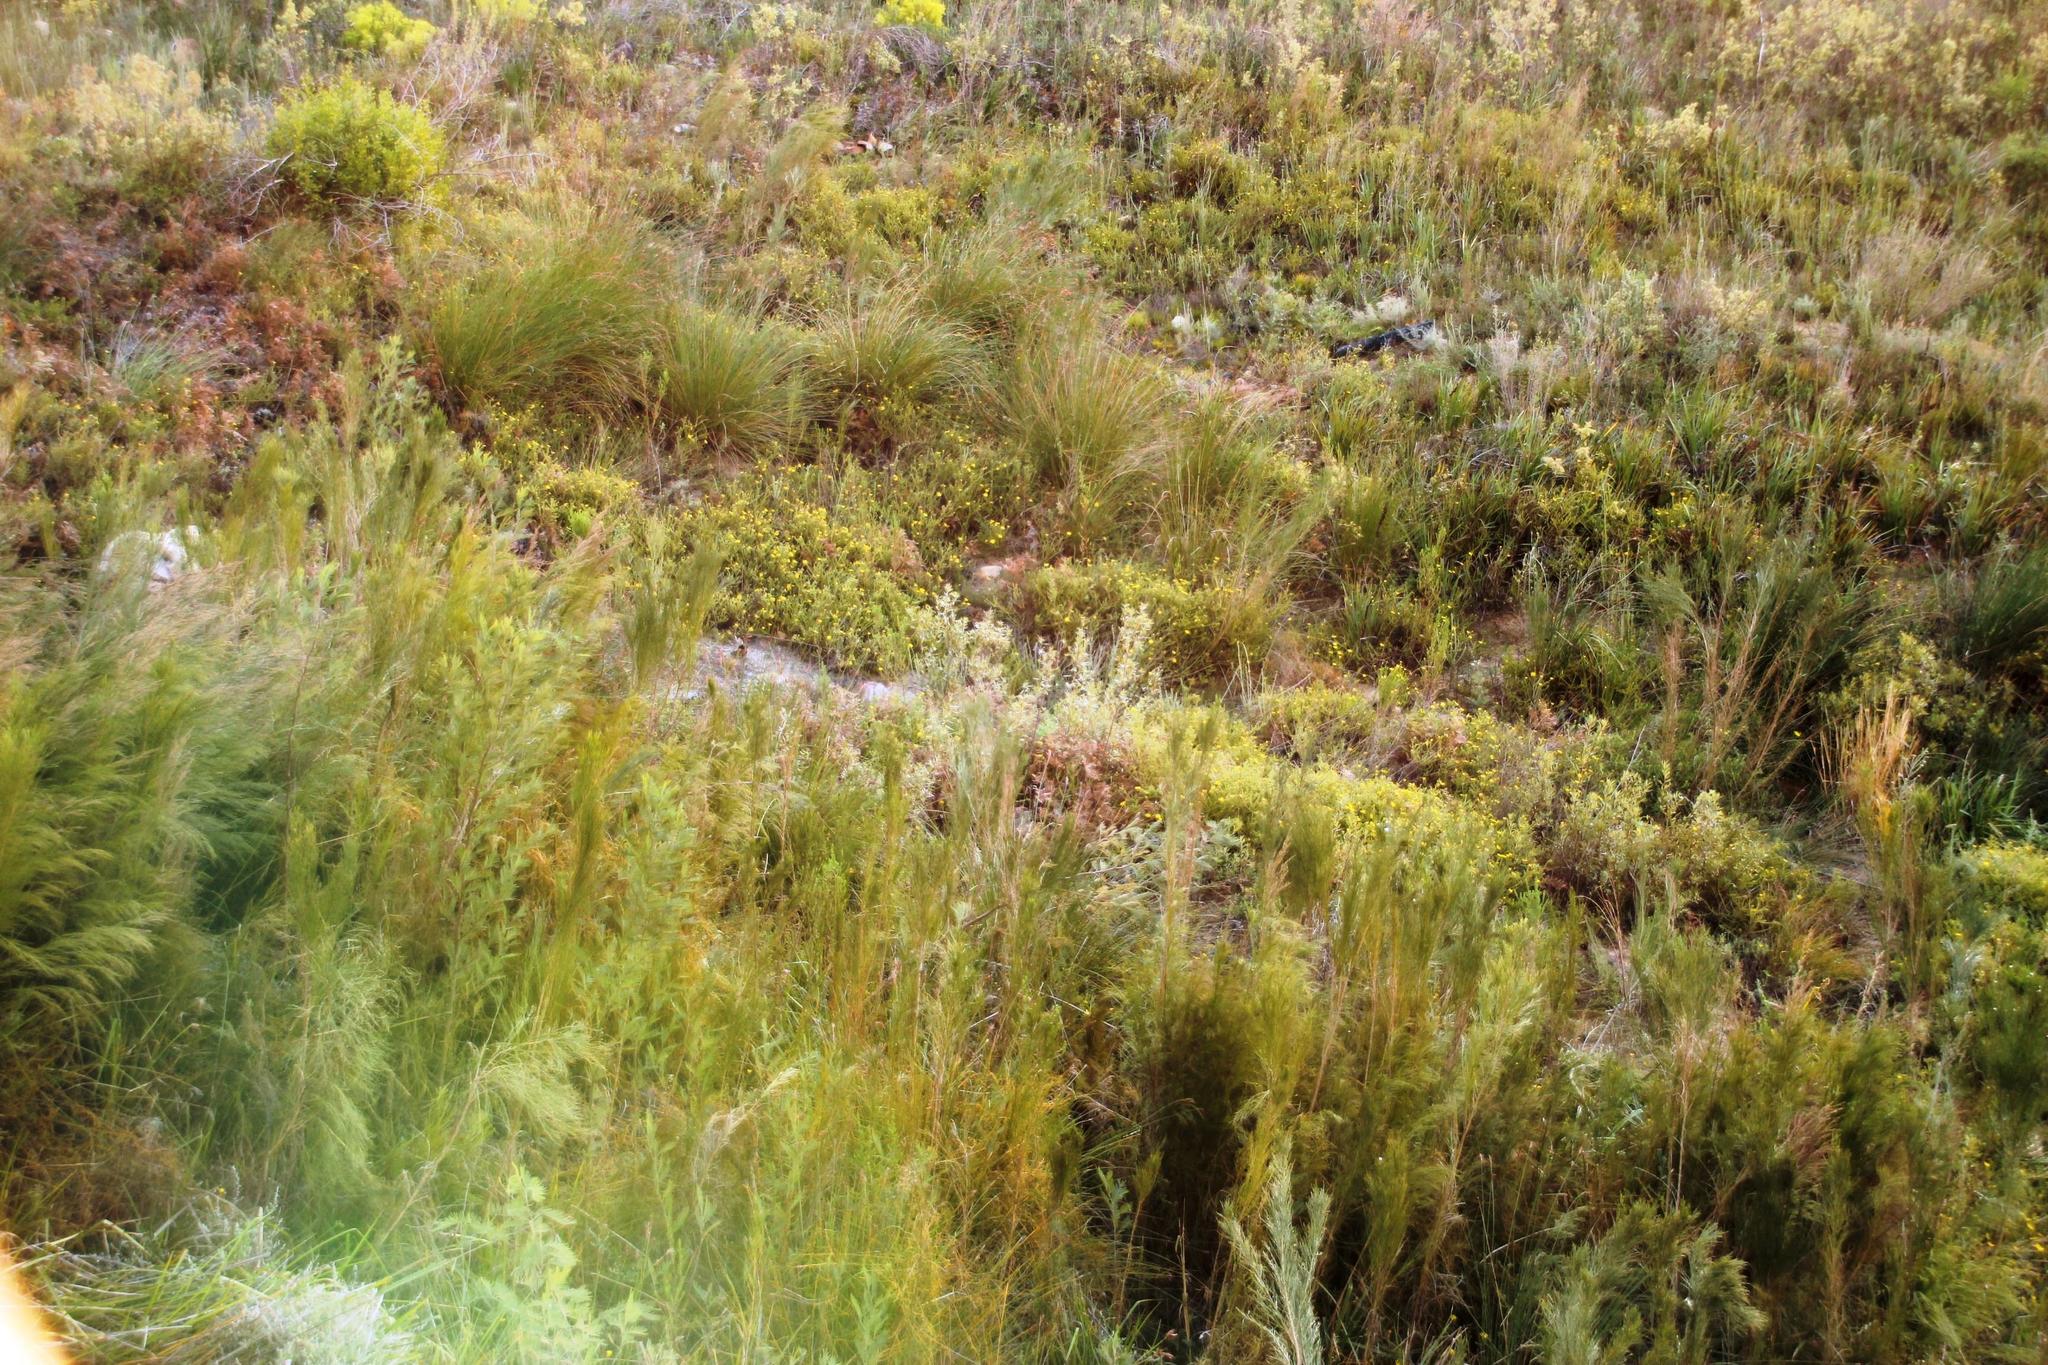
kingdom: Plantae
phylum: Tracheophyta
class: Magnoliopsida
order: Asterales
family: Asteraceae
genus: Cullumia
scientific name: Cullumia reticulata
